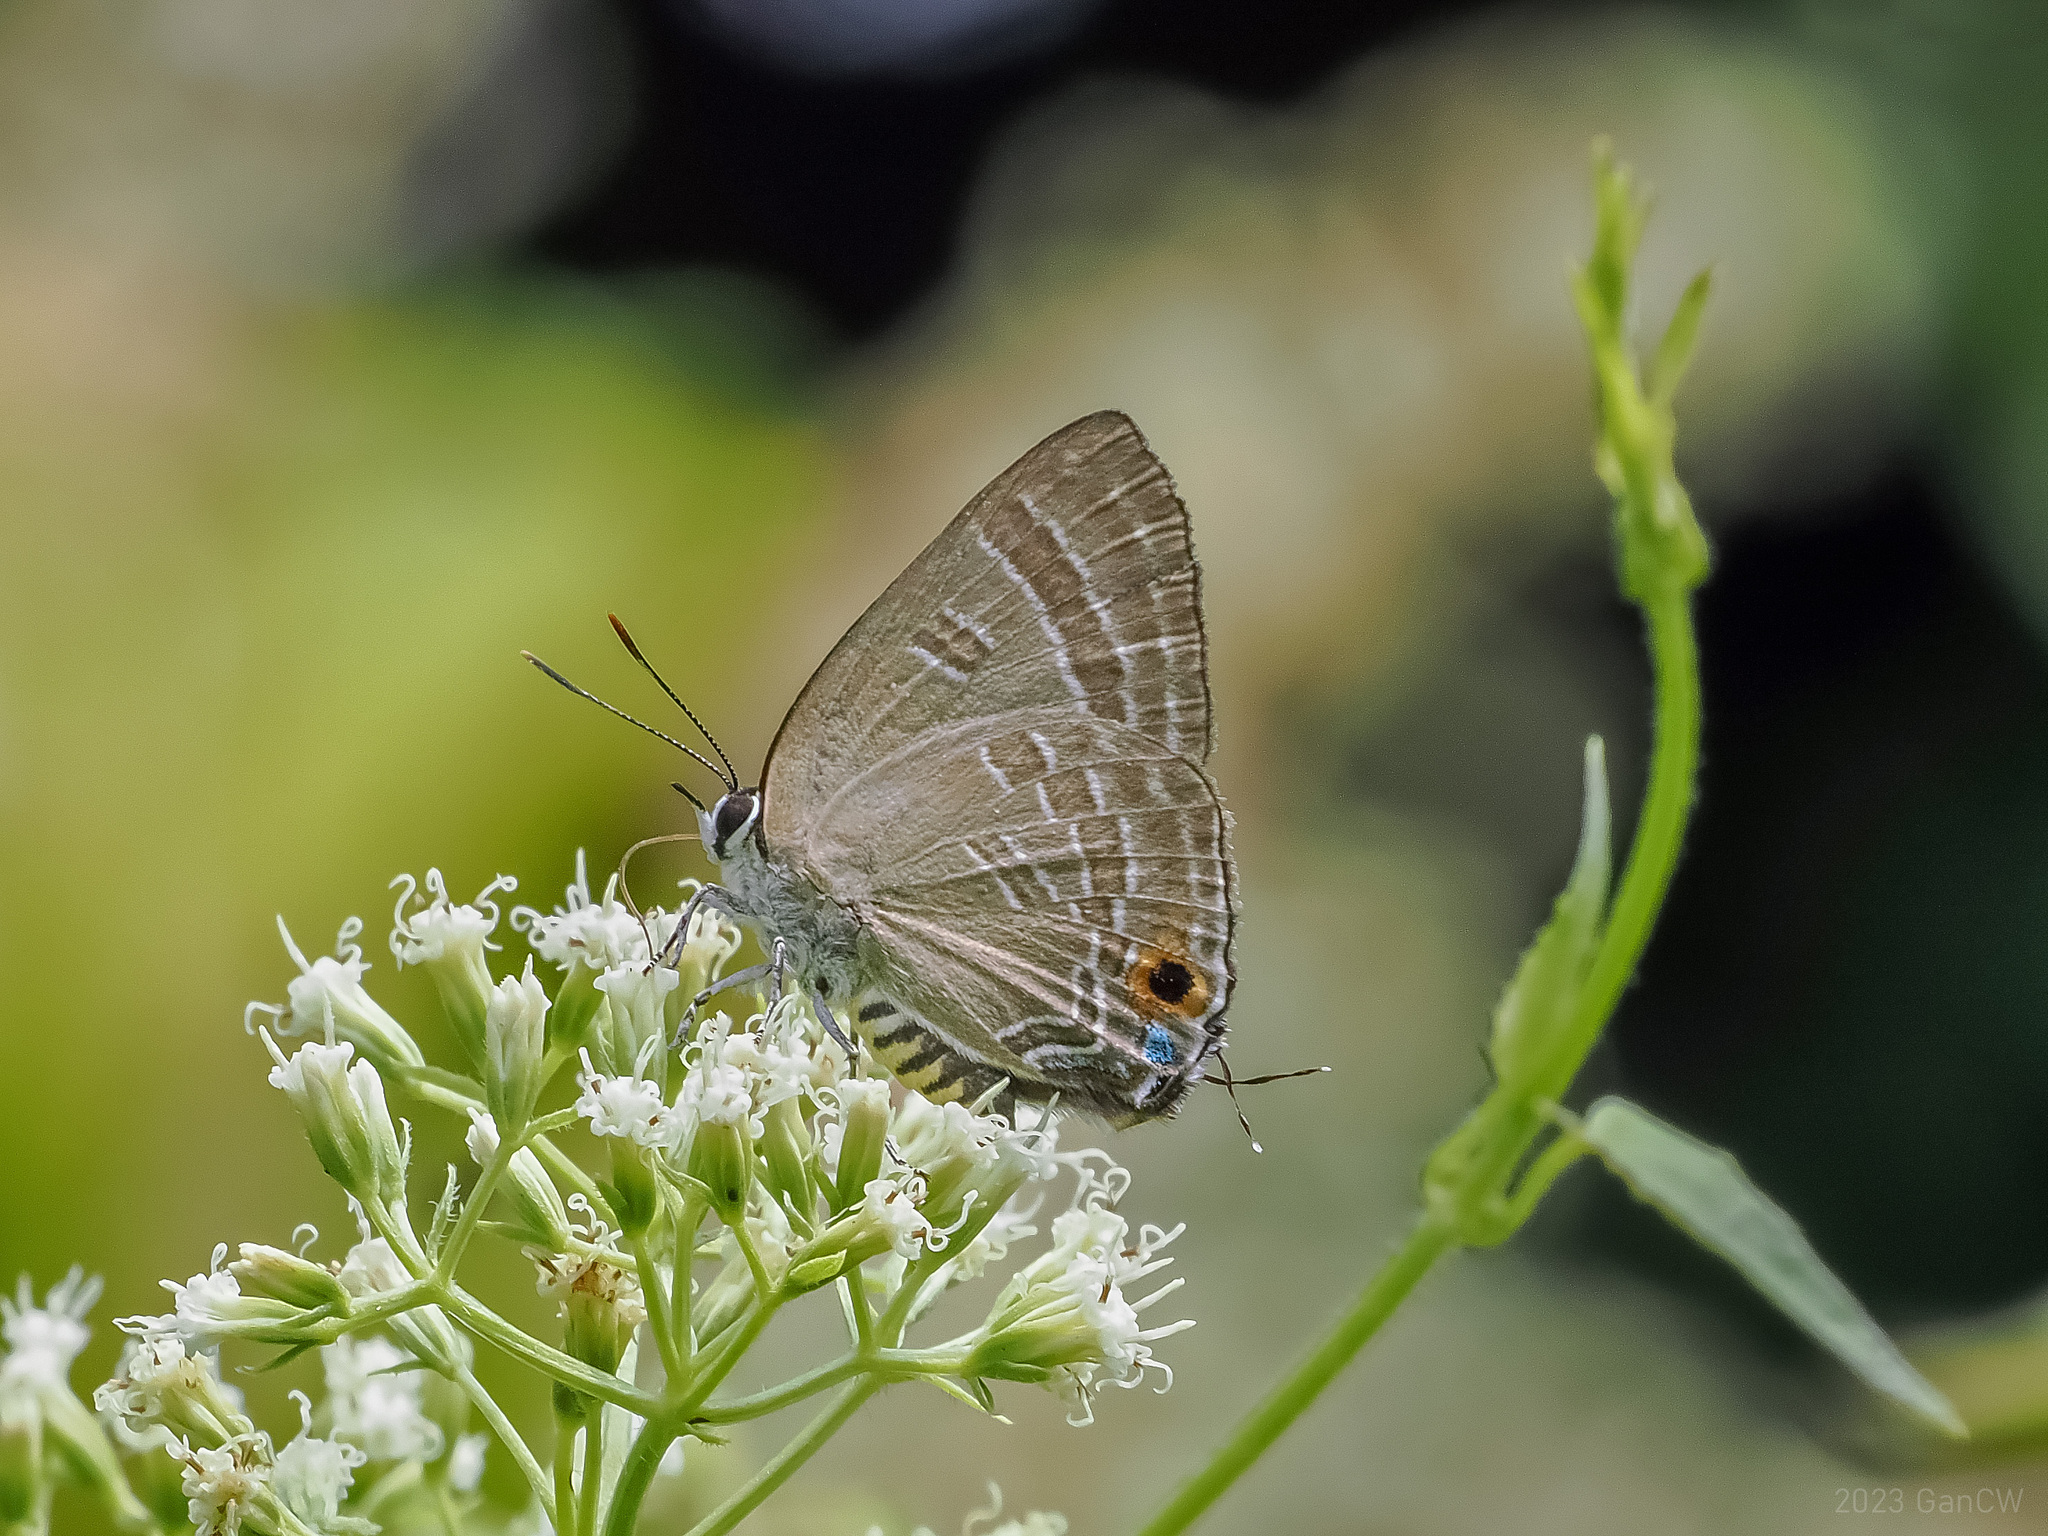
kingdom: Animalia
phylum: Arthropoda
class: Insecta
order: Lepidoptera
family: Lycaenidae
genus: Deudorix
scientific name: Deudorix epijarbas
